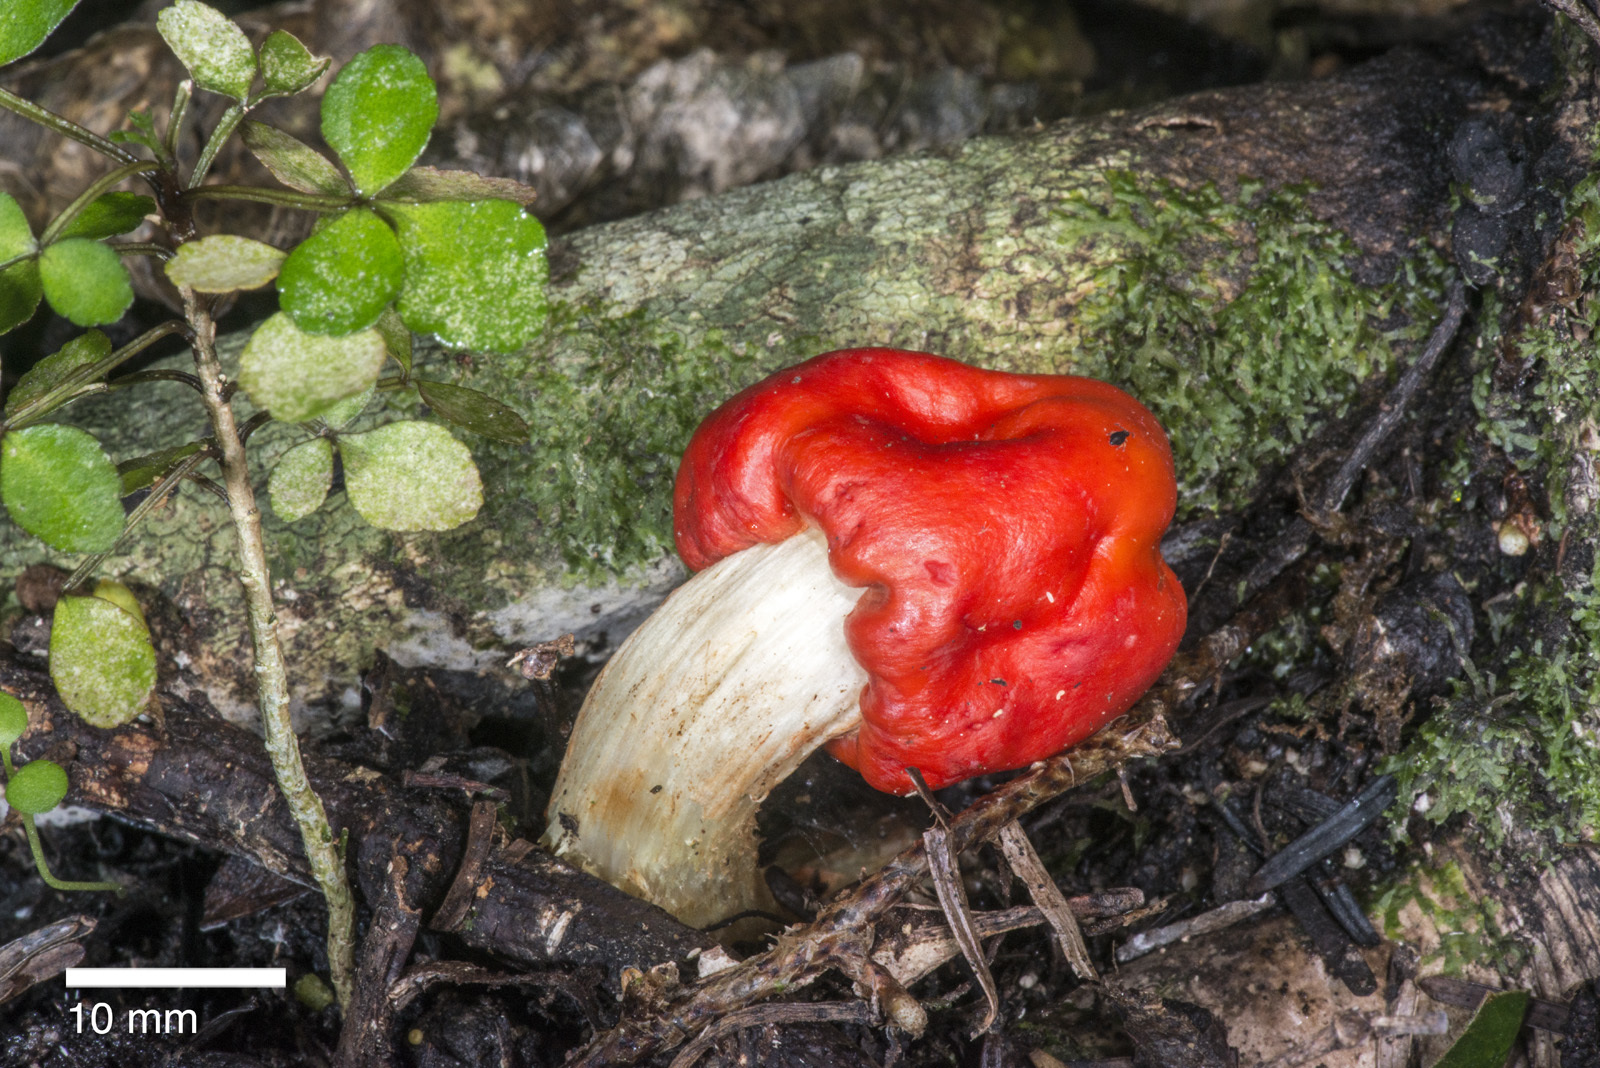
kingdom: Fungi
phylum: Basidiomycota
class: Agaricomycetes
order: Agaricales
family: Strophariaceae
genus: Leratiomyces
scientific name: Leratiomyces erythrocephalus
